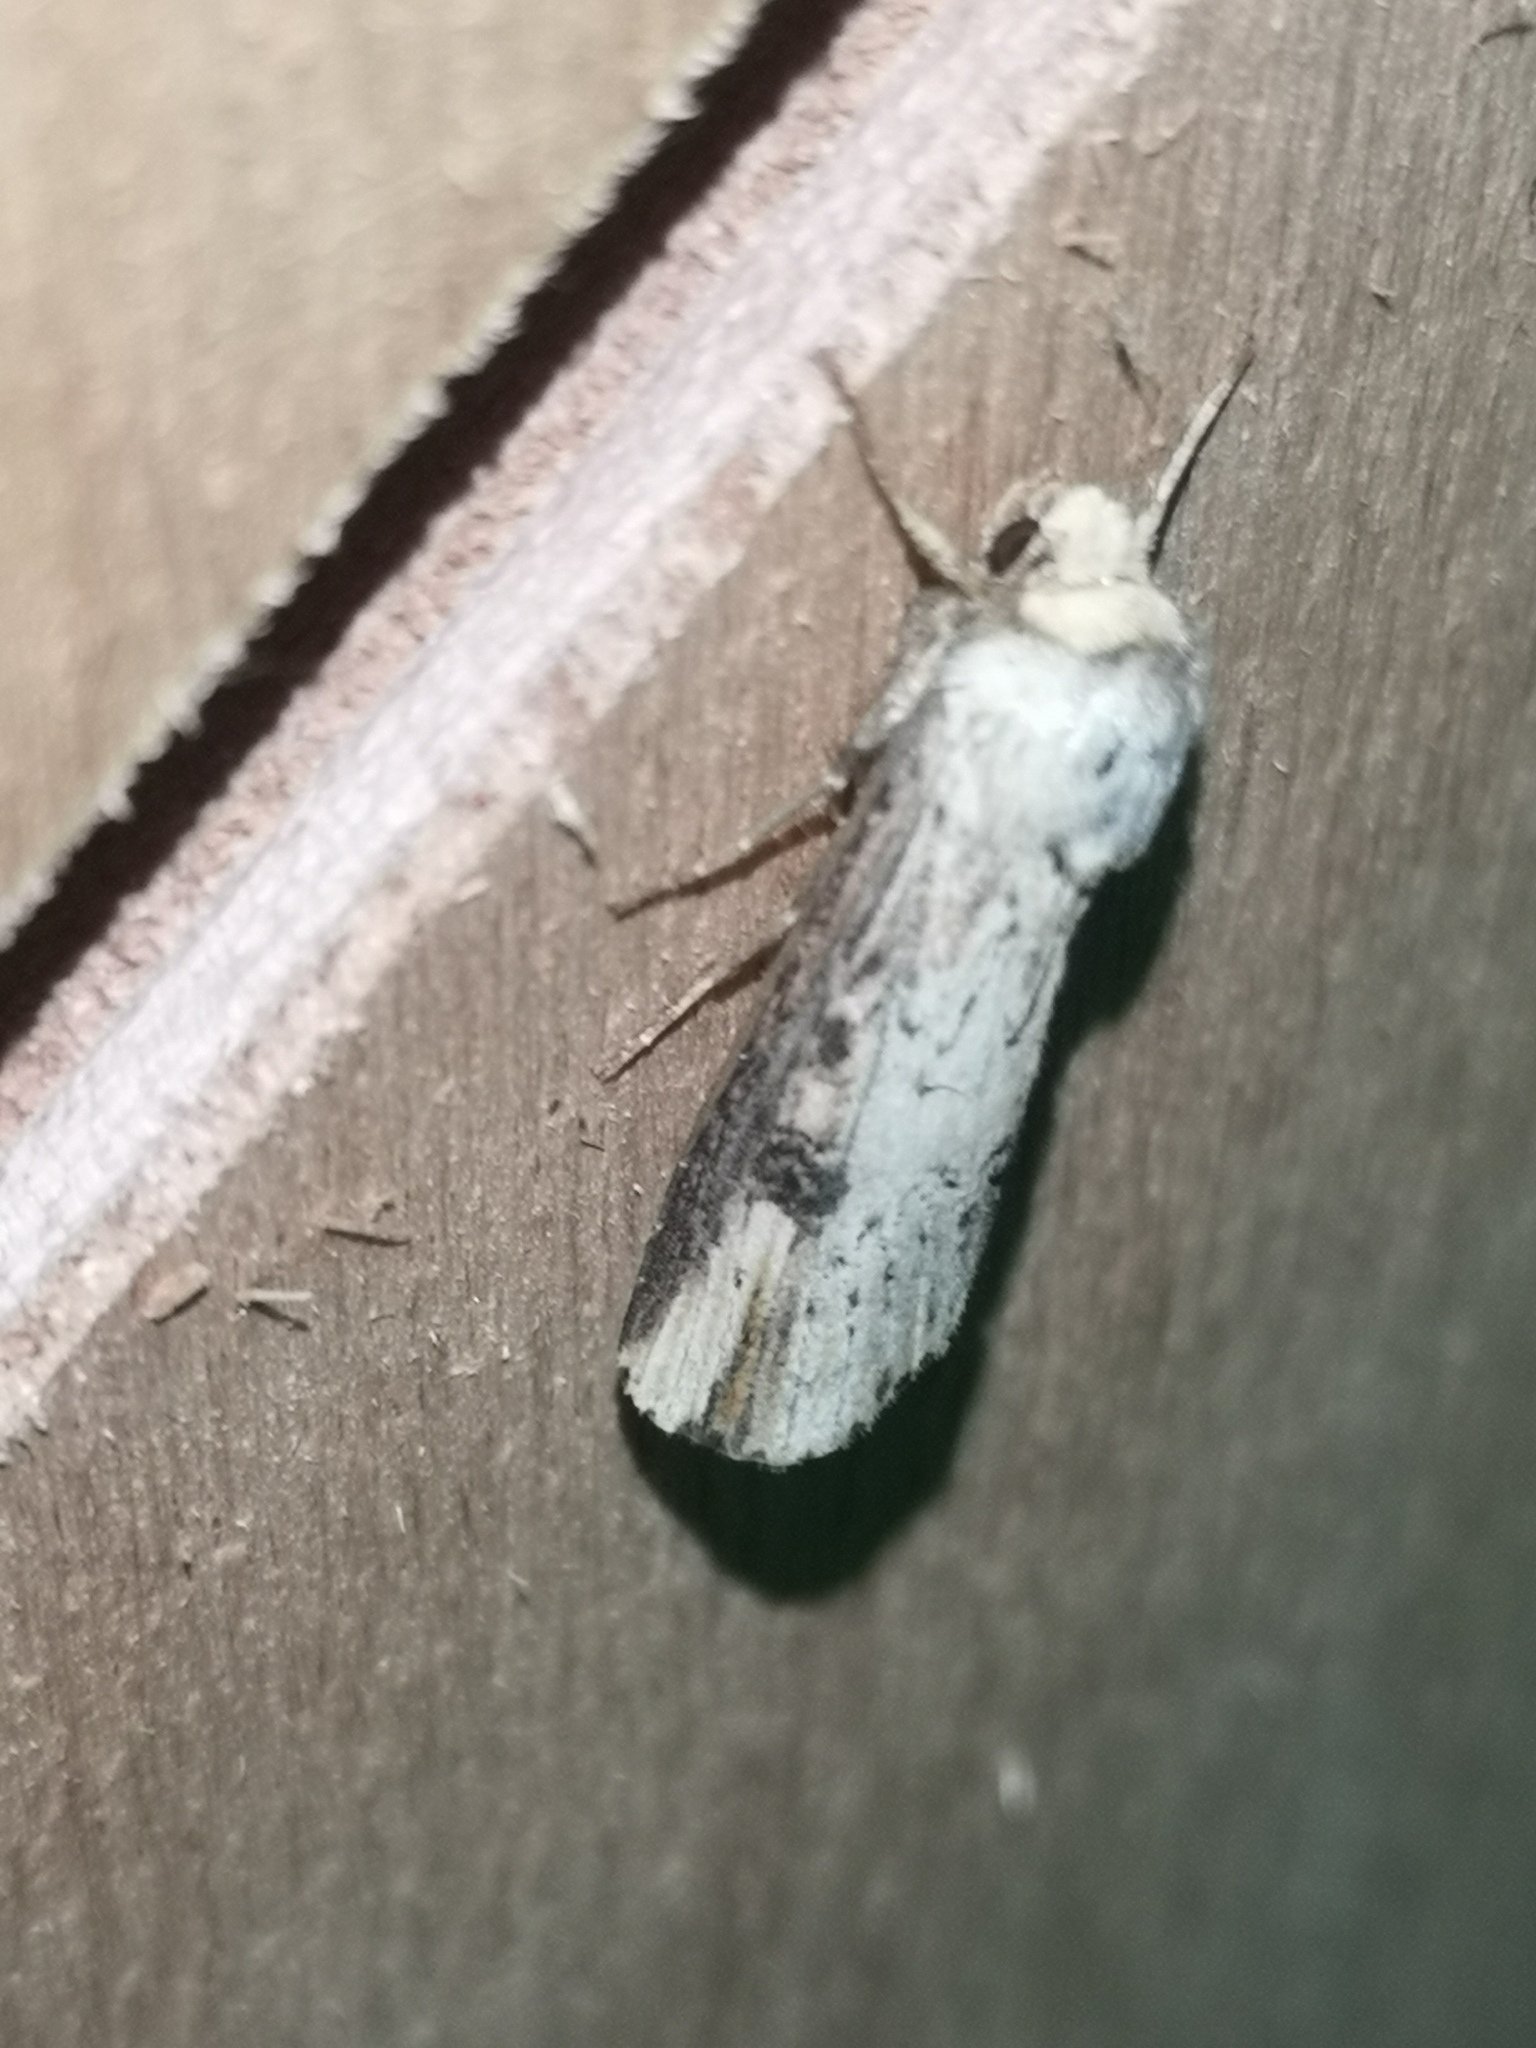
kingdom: Animalia
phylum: Arthropoda
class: Insecta
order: Lepidoptera
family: Noctuidae
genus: Axylia
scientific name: Axylia putris
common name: Flame
